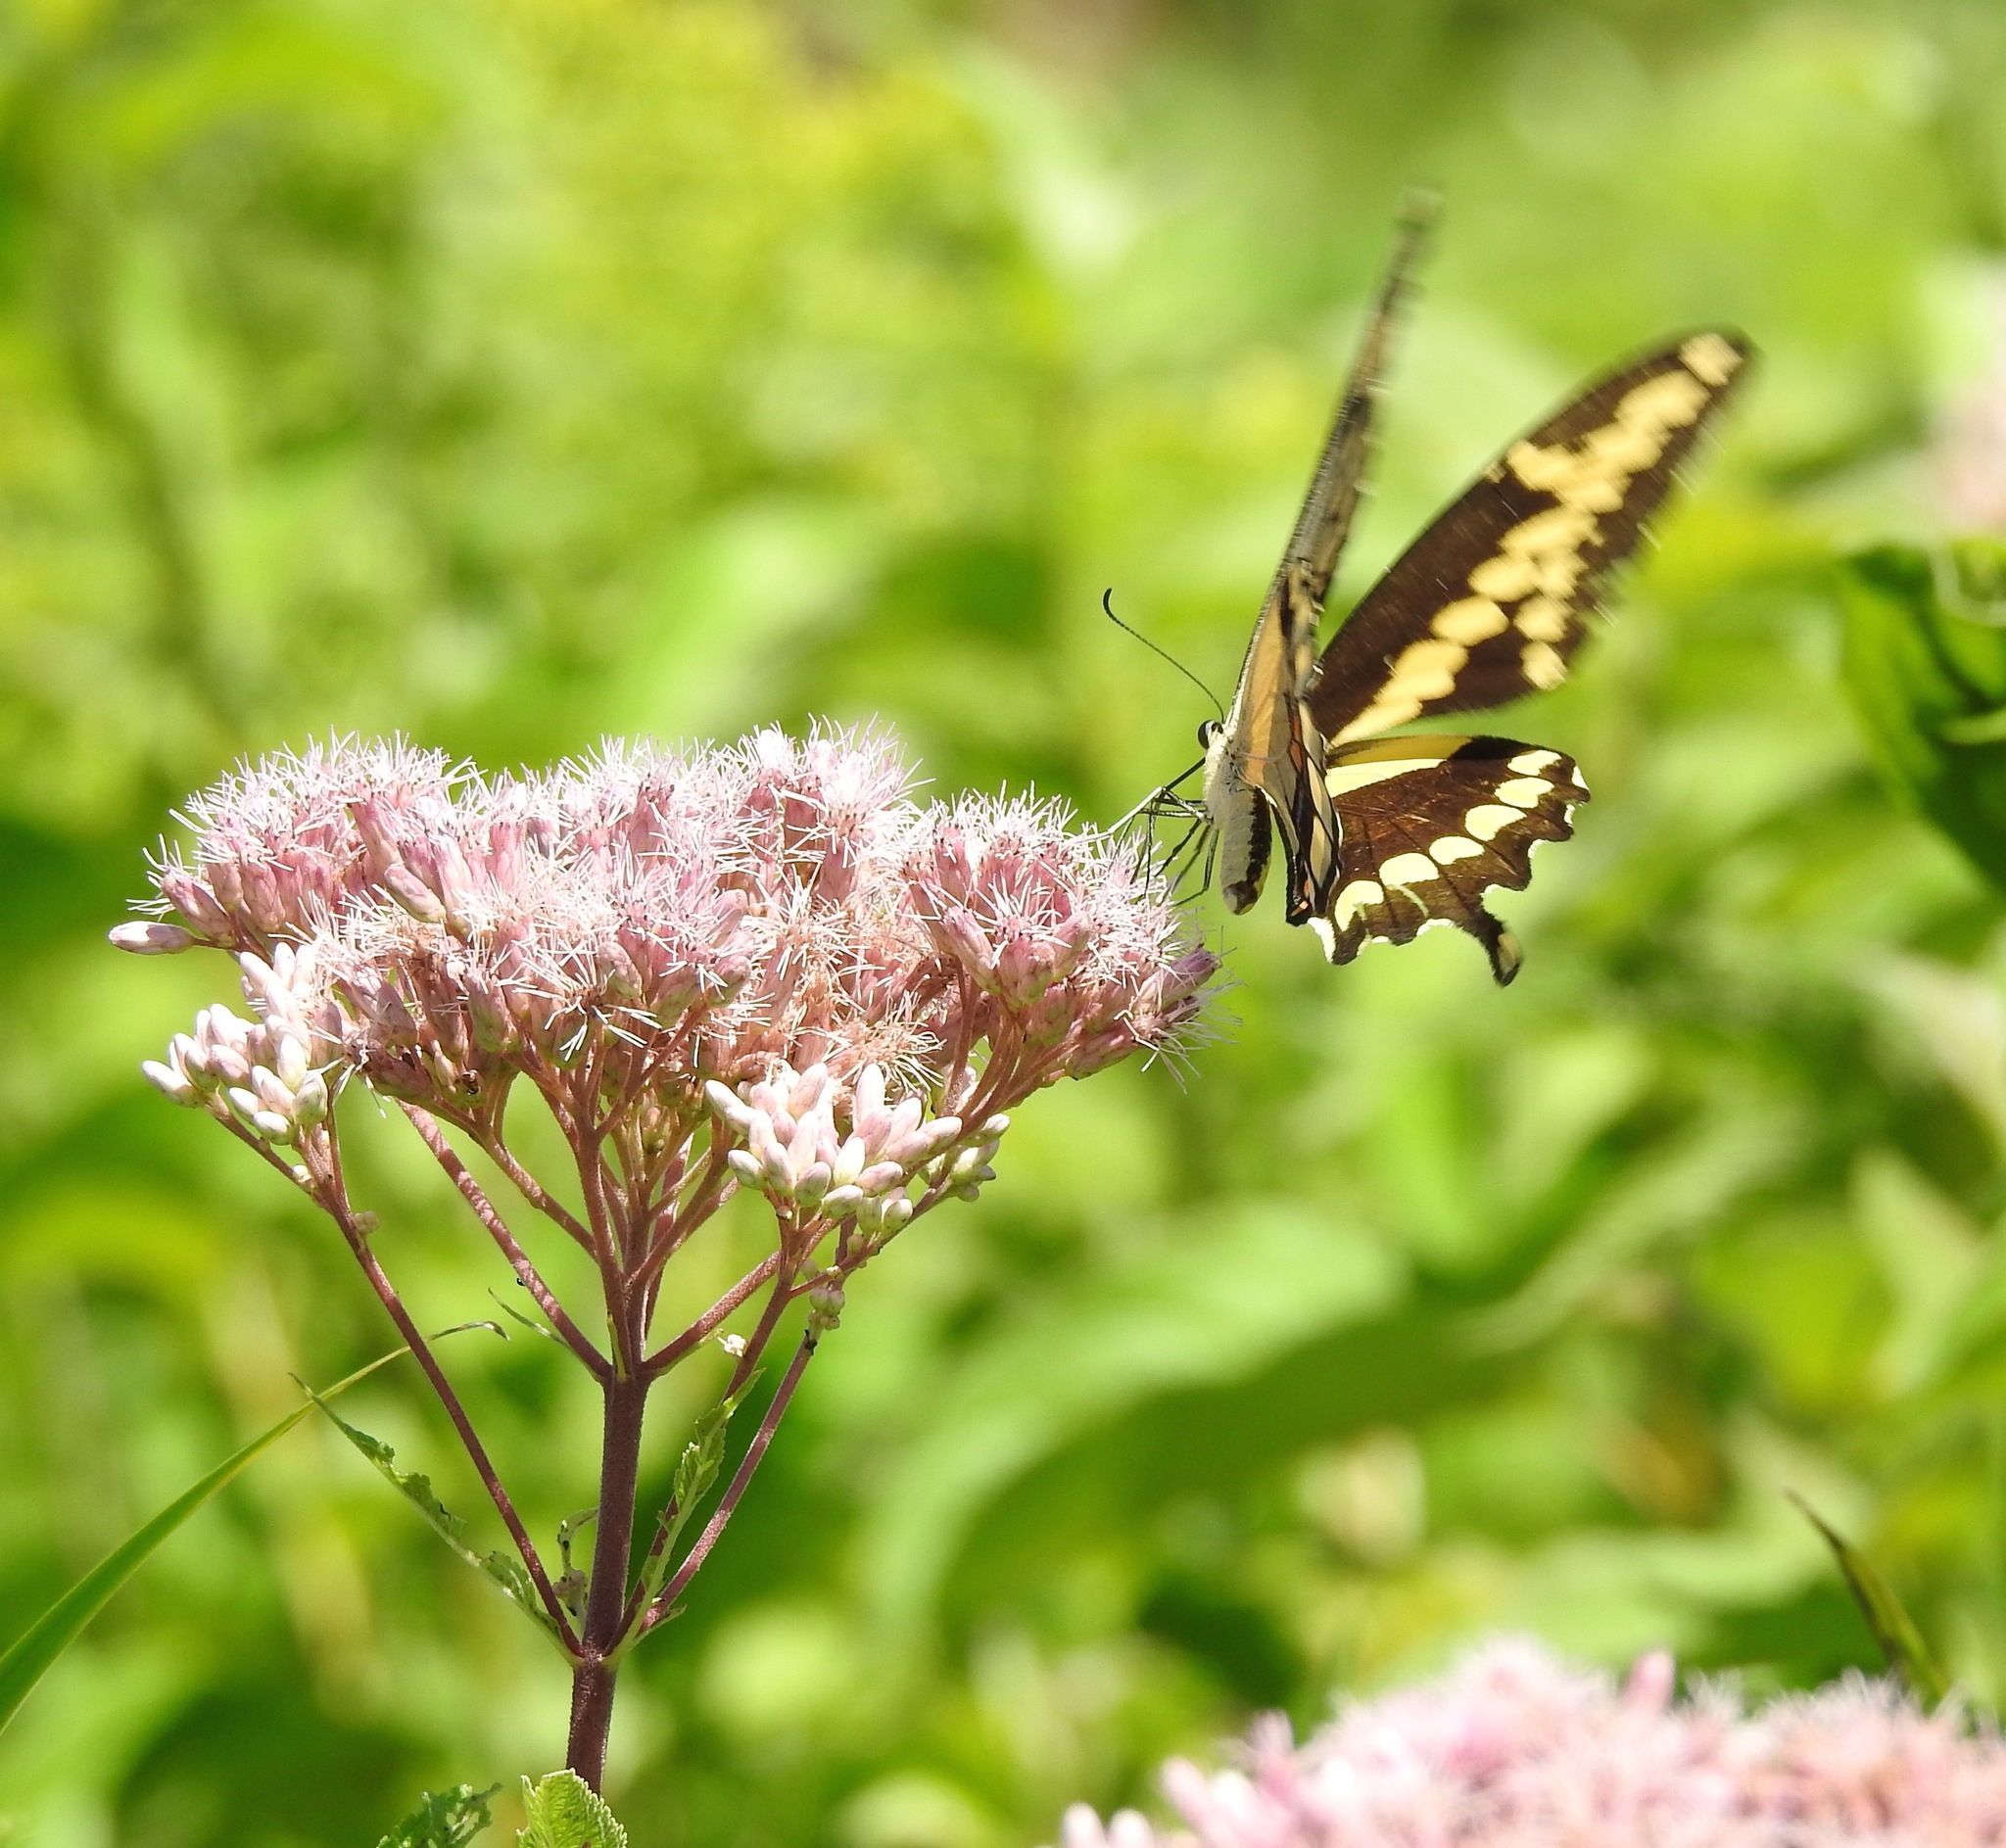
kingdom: Animalia
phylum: Arthropoda
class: Insecta
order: Lepidoptera
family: Papilionidae
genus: Papilio
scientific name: Papilio cresphontes
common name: Giant swallowtail
